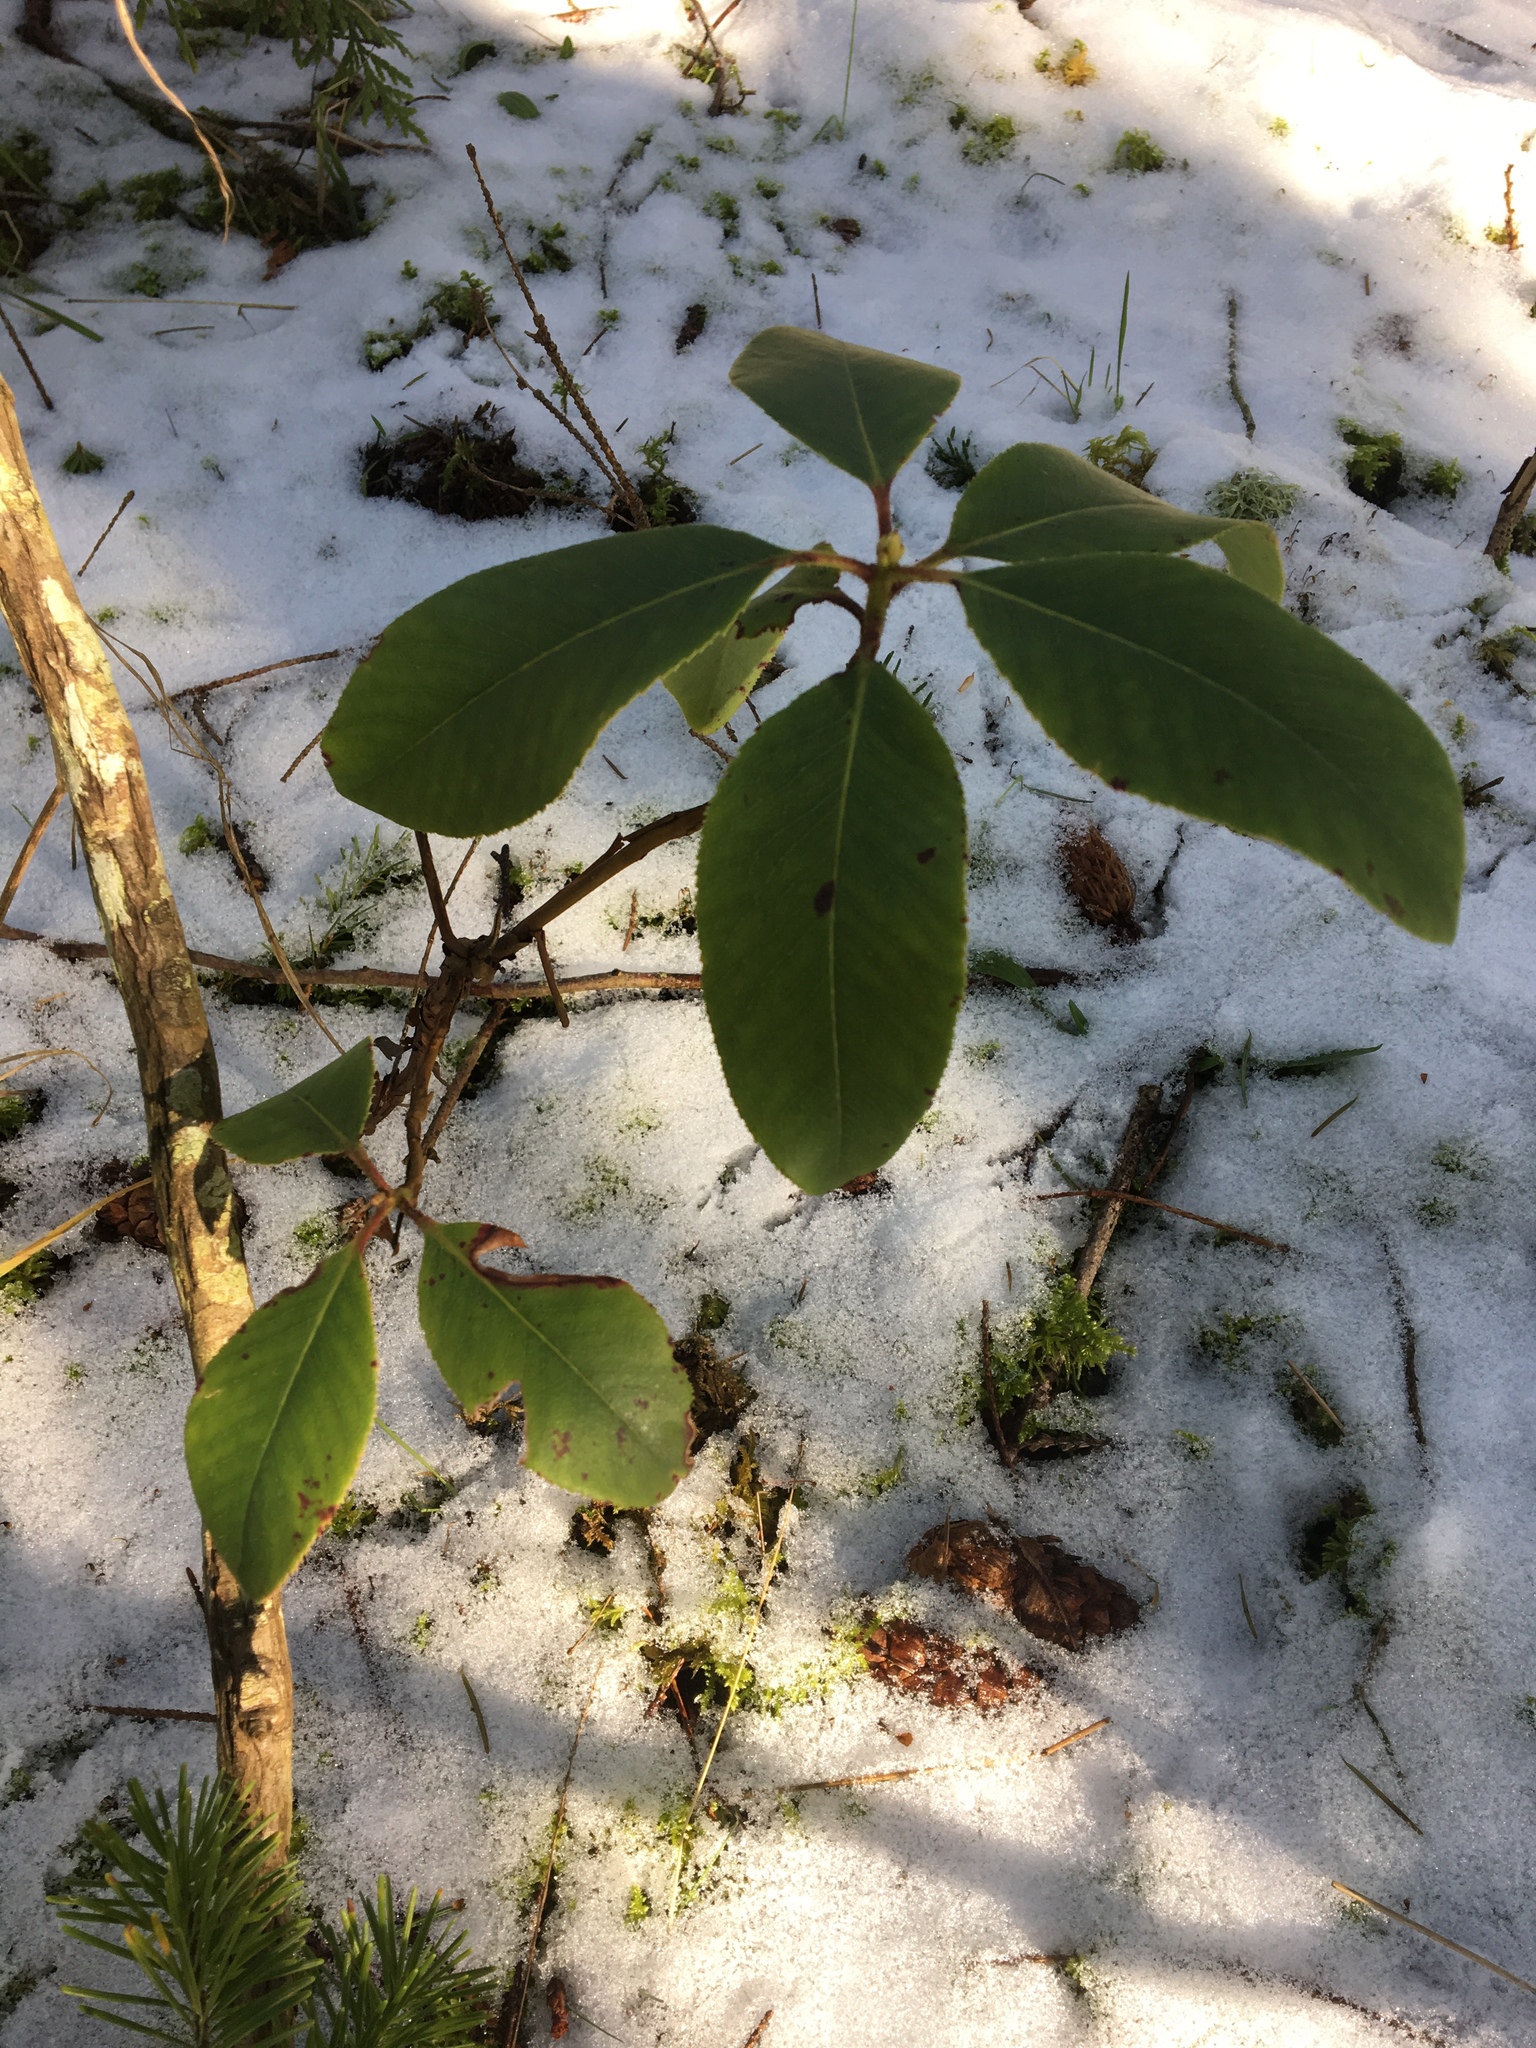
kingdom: Plantae
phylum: Tracheophyta
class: Magnoliopsida
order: Ericales
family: Ericaceae
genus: Arbutus
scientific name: Arbutus menziesii
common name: Pacific madrone
